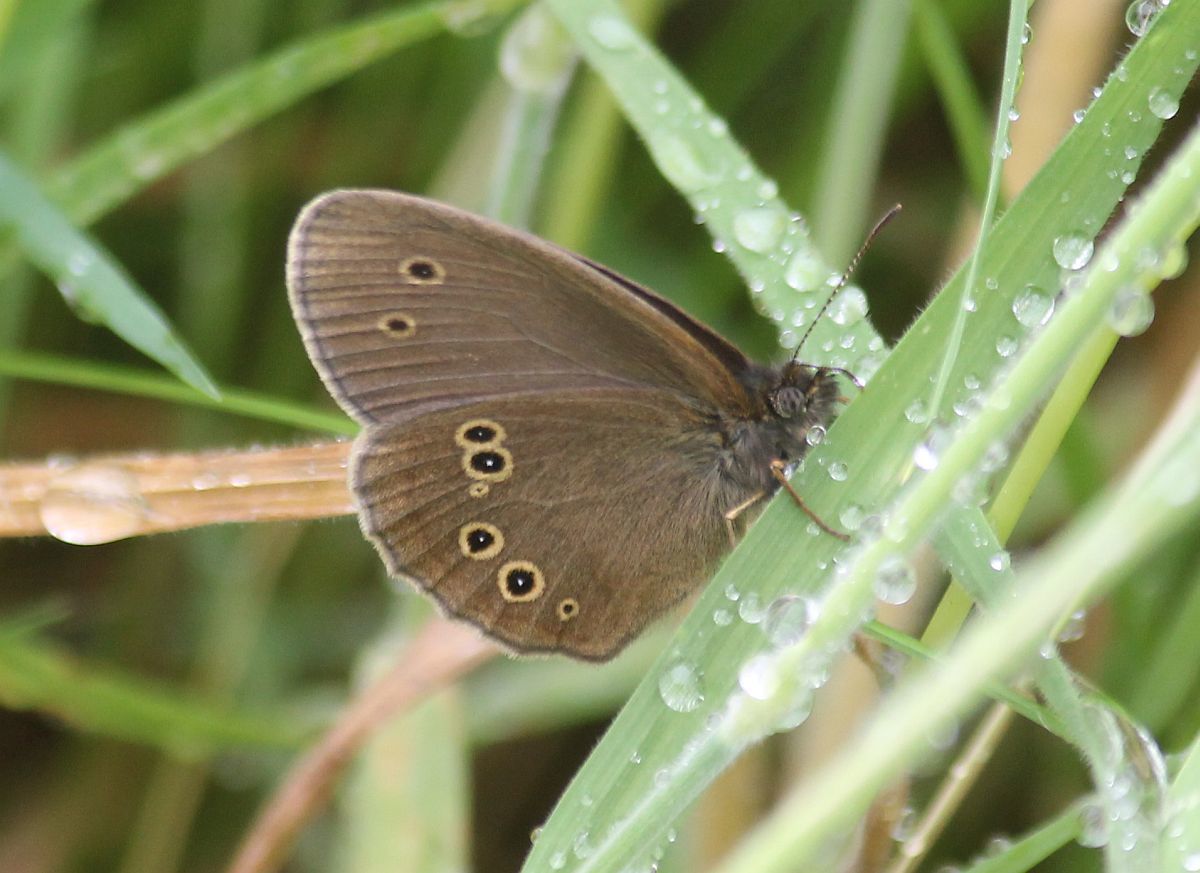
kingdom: Animalia
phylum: Arthropoda
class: Insecta
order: Lepidoptera
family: Nymphalidae
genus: Aphantopus
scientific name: Aphantopus hyperantus
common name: Ringlet
